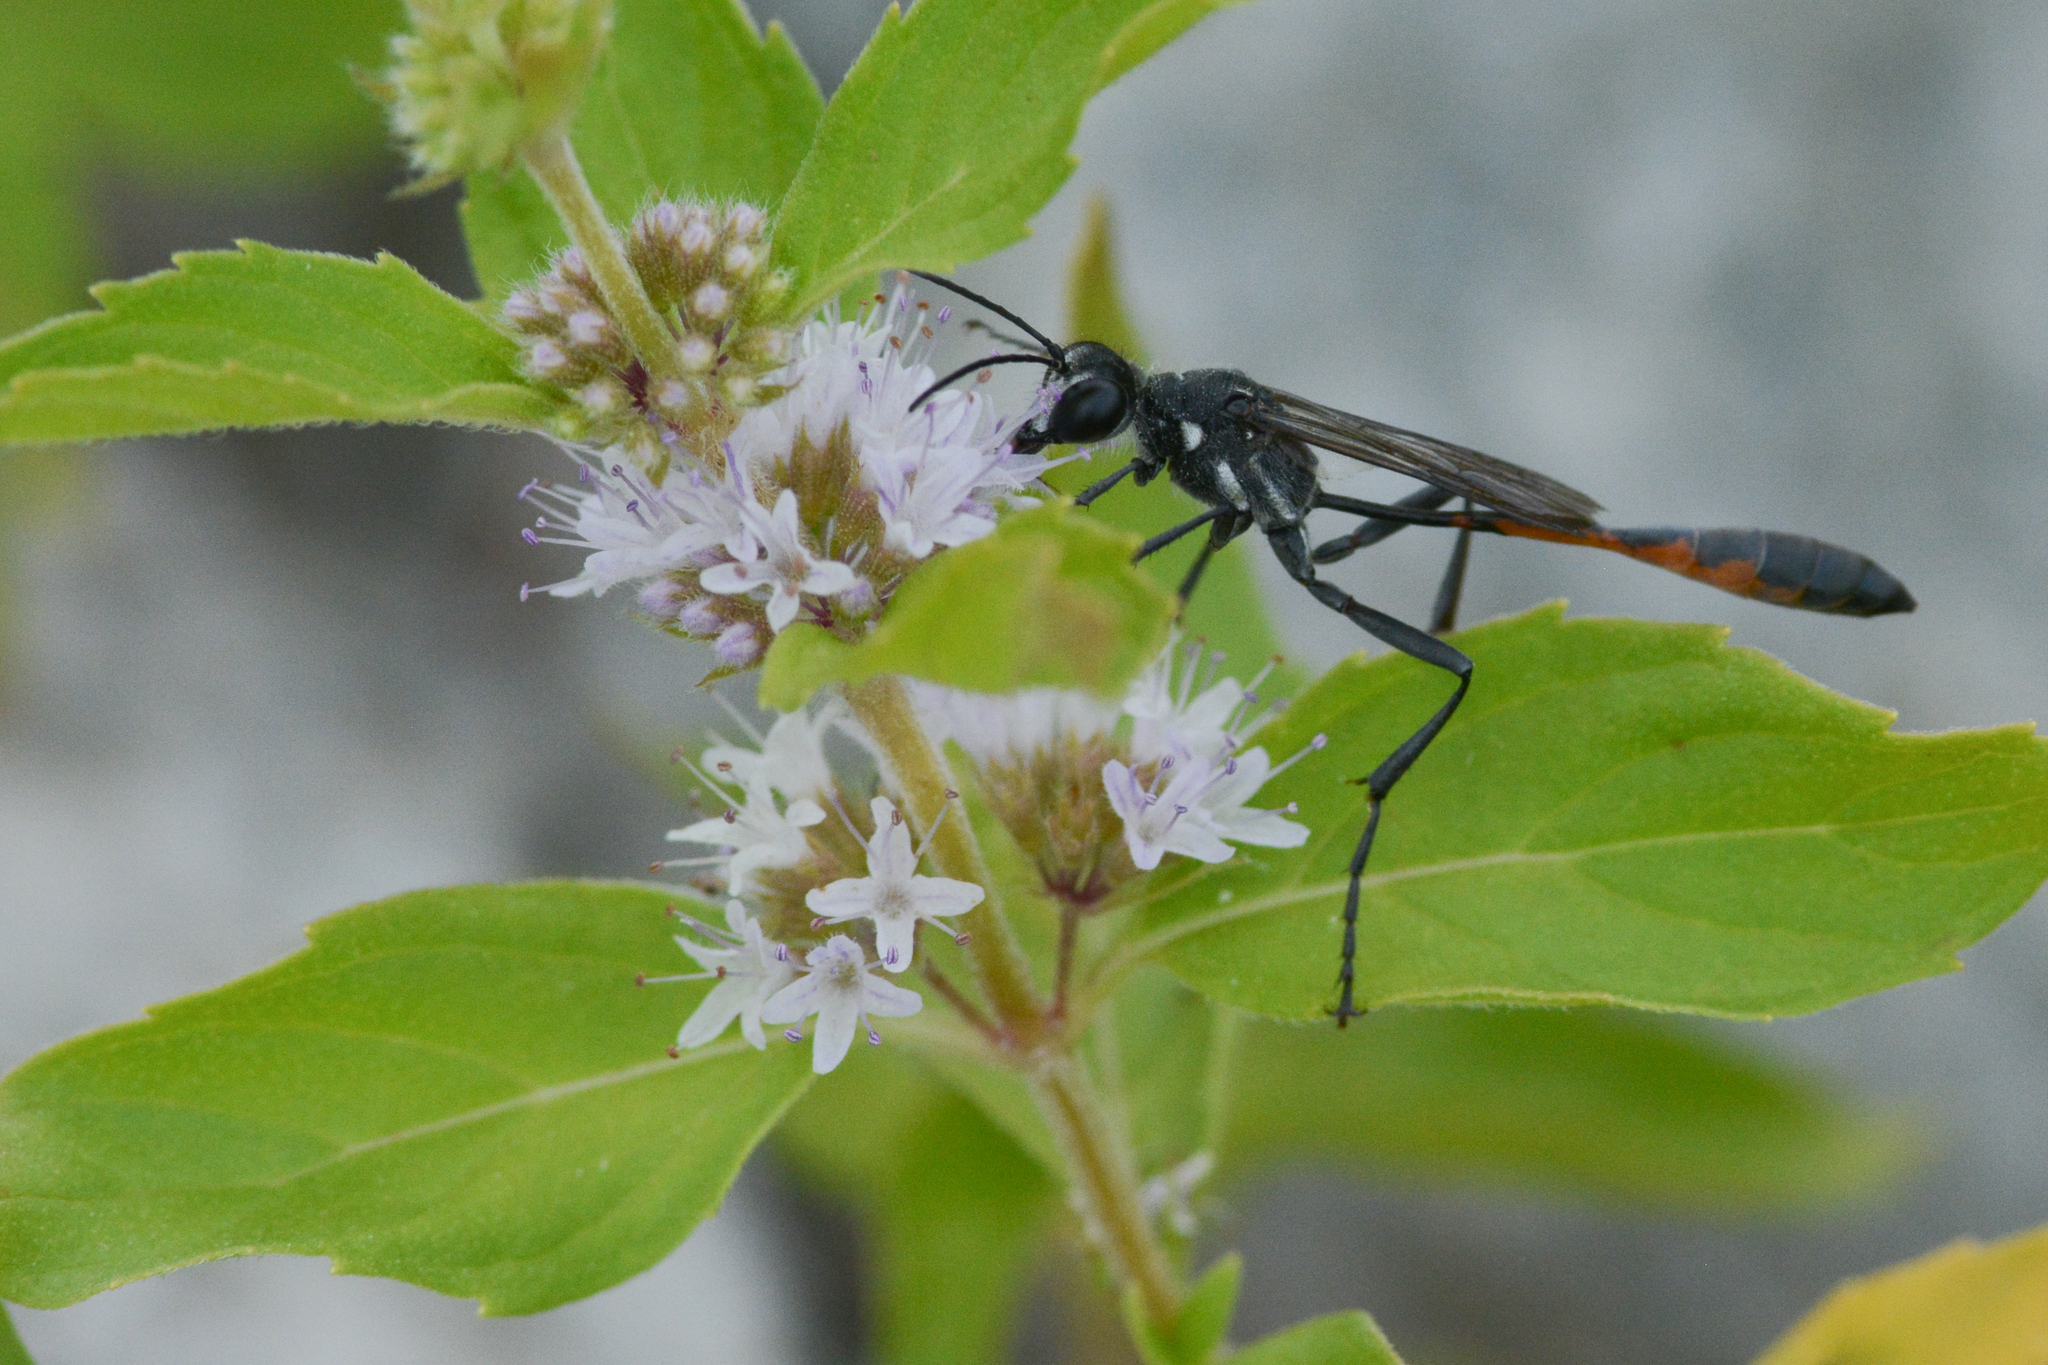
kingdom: Animalia
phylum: Arthropoda
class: Insecta
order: Hymenoptera
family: Sphecidae
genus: Ammophila
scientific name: Ammophila procera
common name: Common thread-waisted wasp
